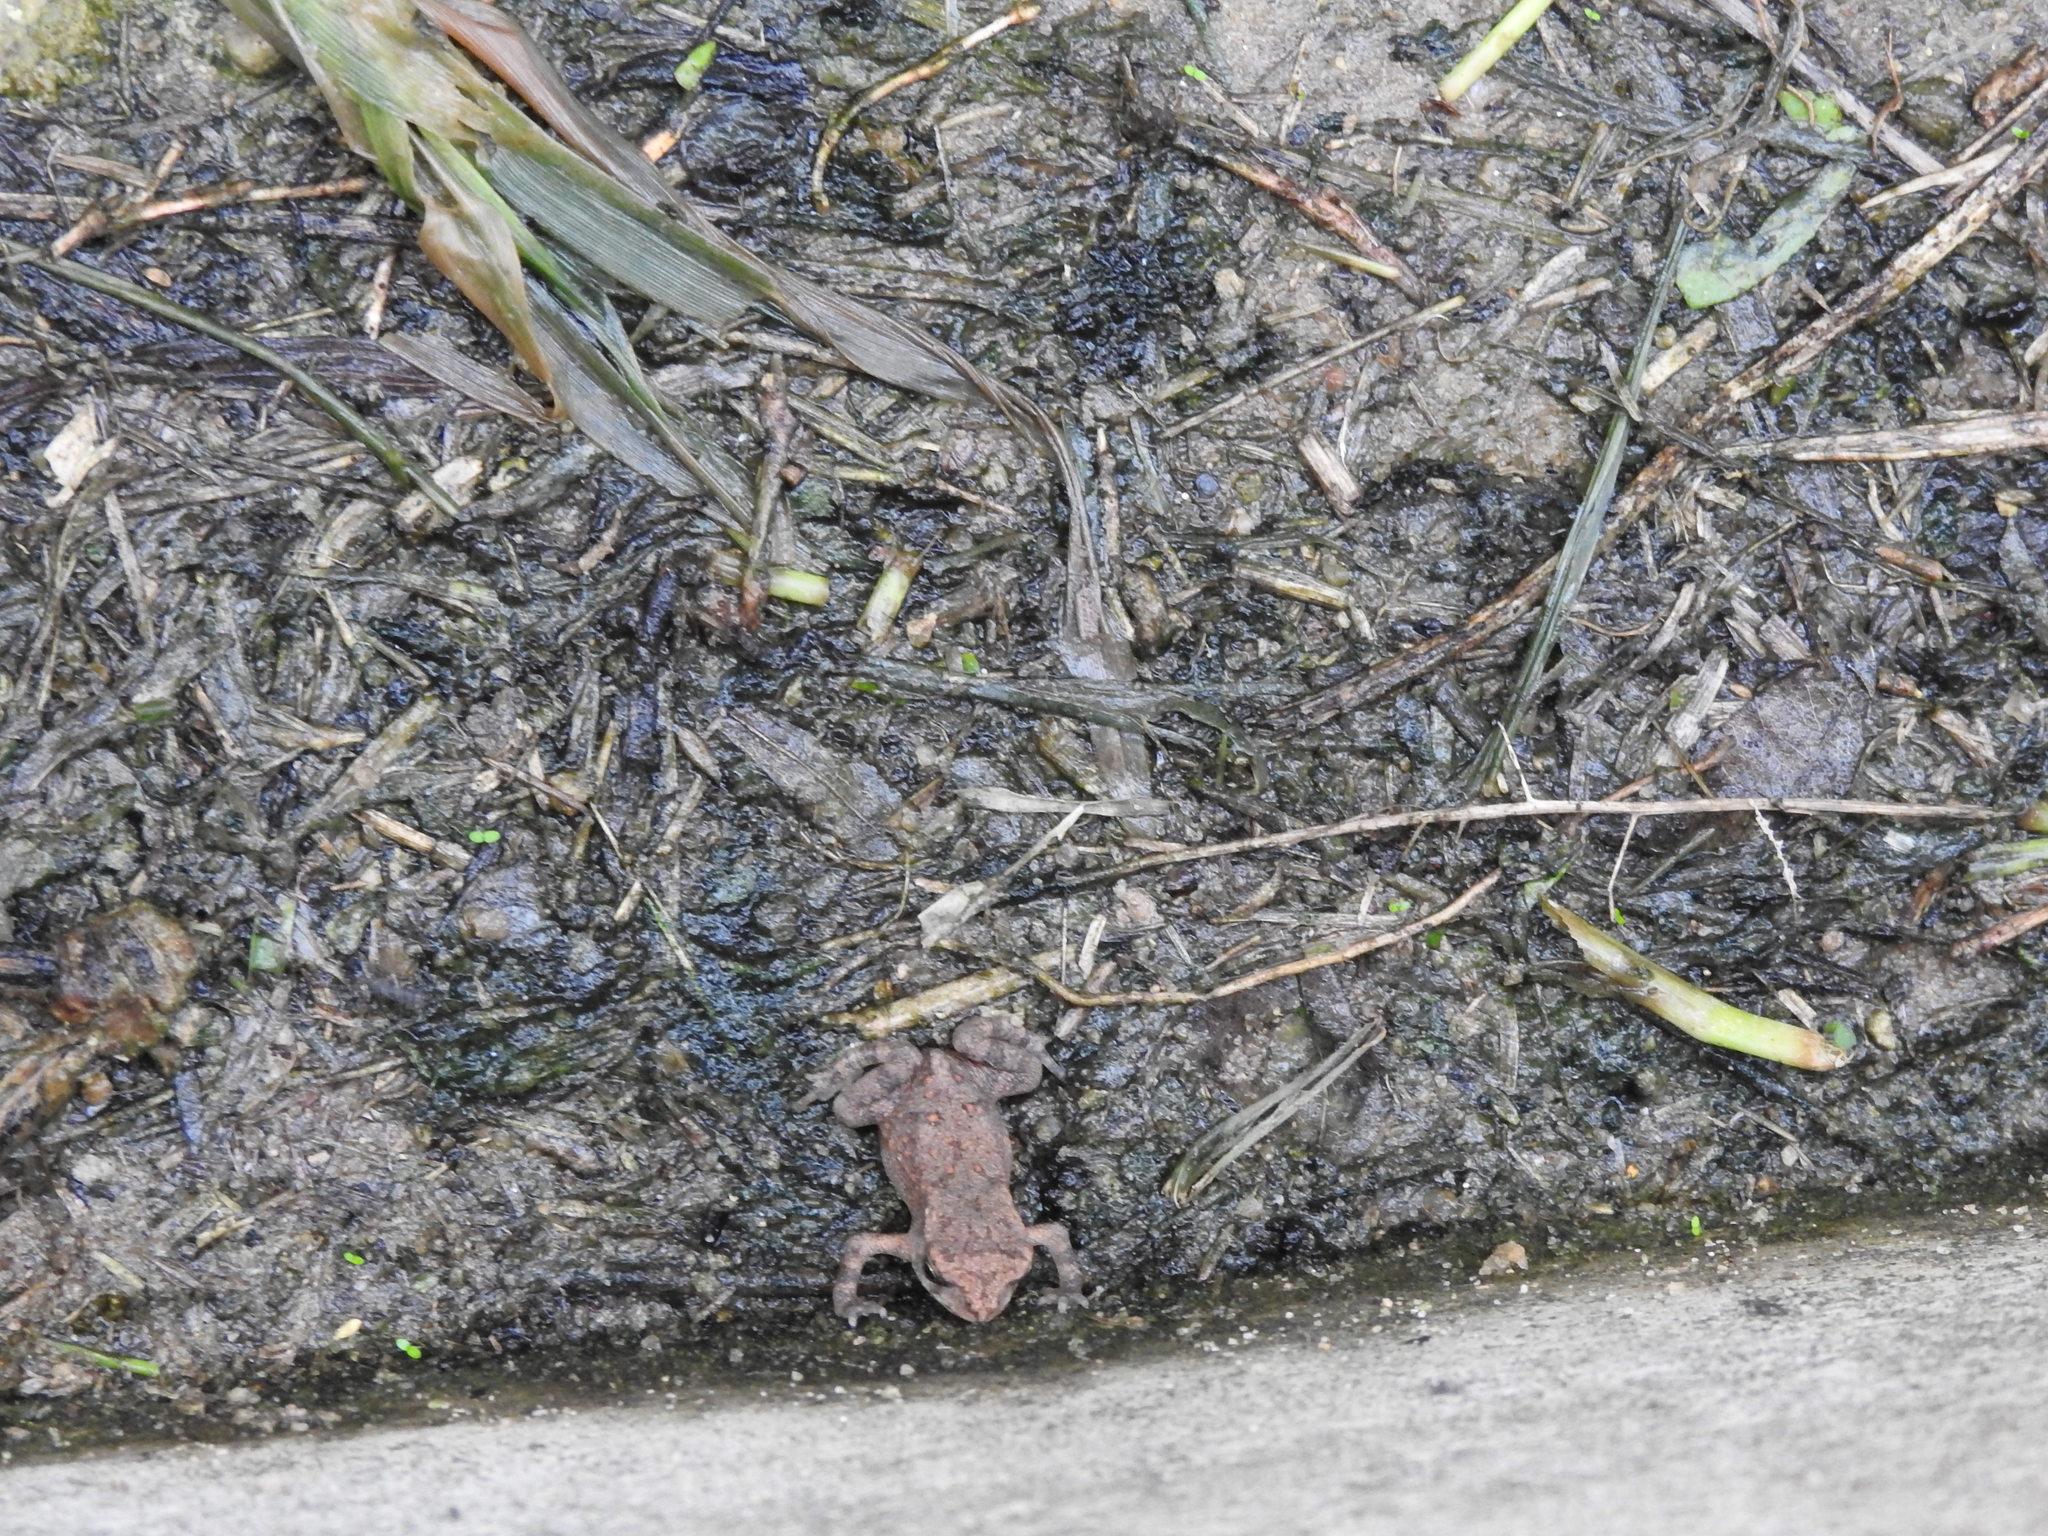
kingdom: Animalia
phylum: Chordata
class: Amphibia
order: Anura
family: Bufonidae
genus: Duttaphrynus
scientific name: Duttaphrynus melanostictus
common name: Common sunda toad
